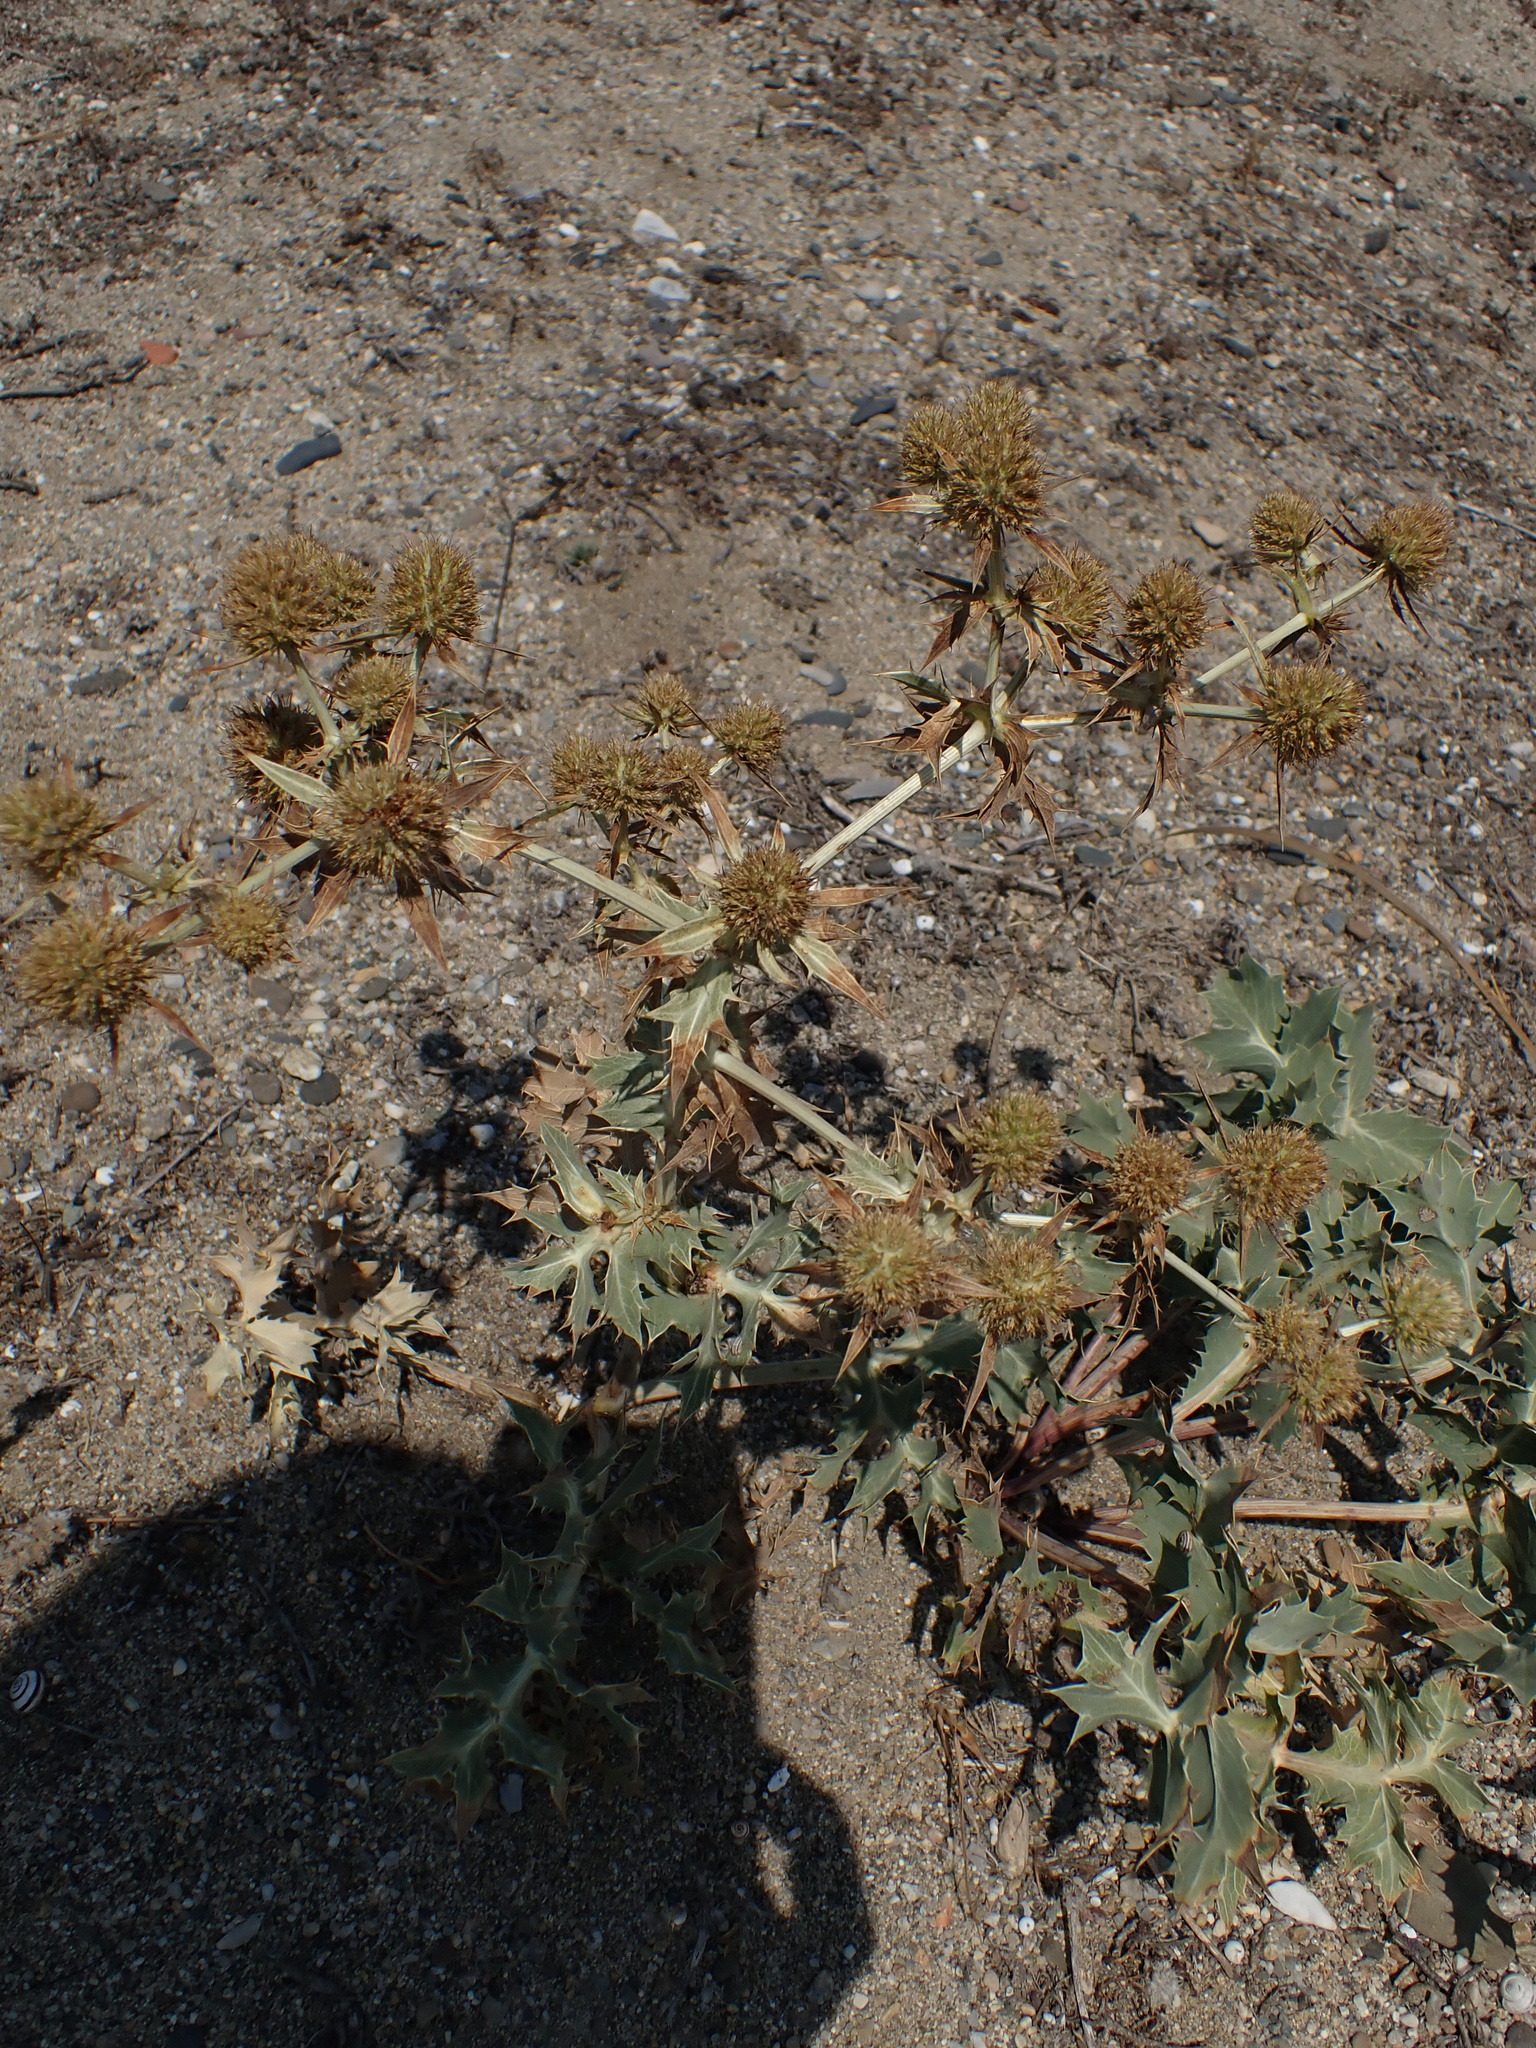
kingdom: Plantae
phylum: Tracheophyta
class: Magnoliopsida
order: Apiales
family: Apiaceae
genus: Eryngium
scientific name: Eryngium campestre
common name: Field eryngo
